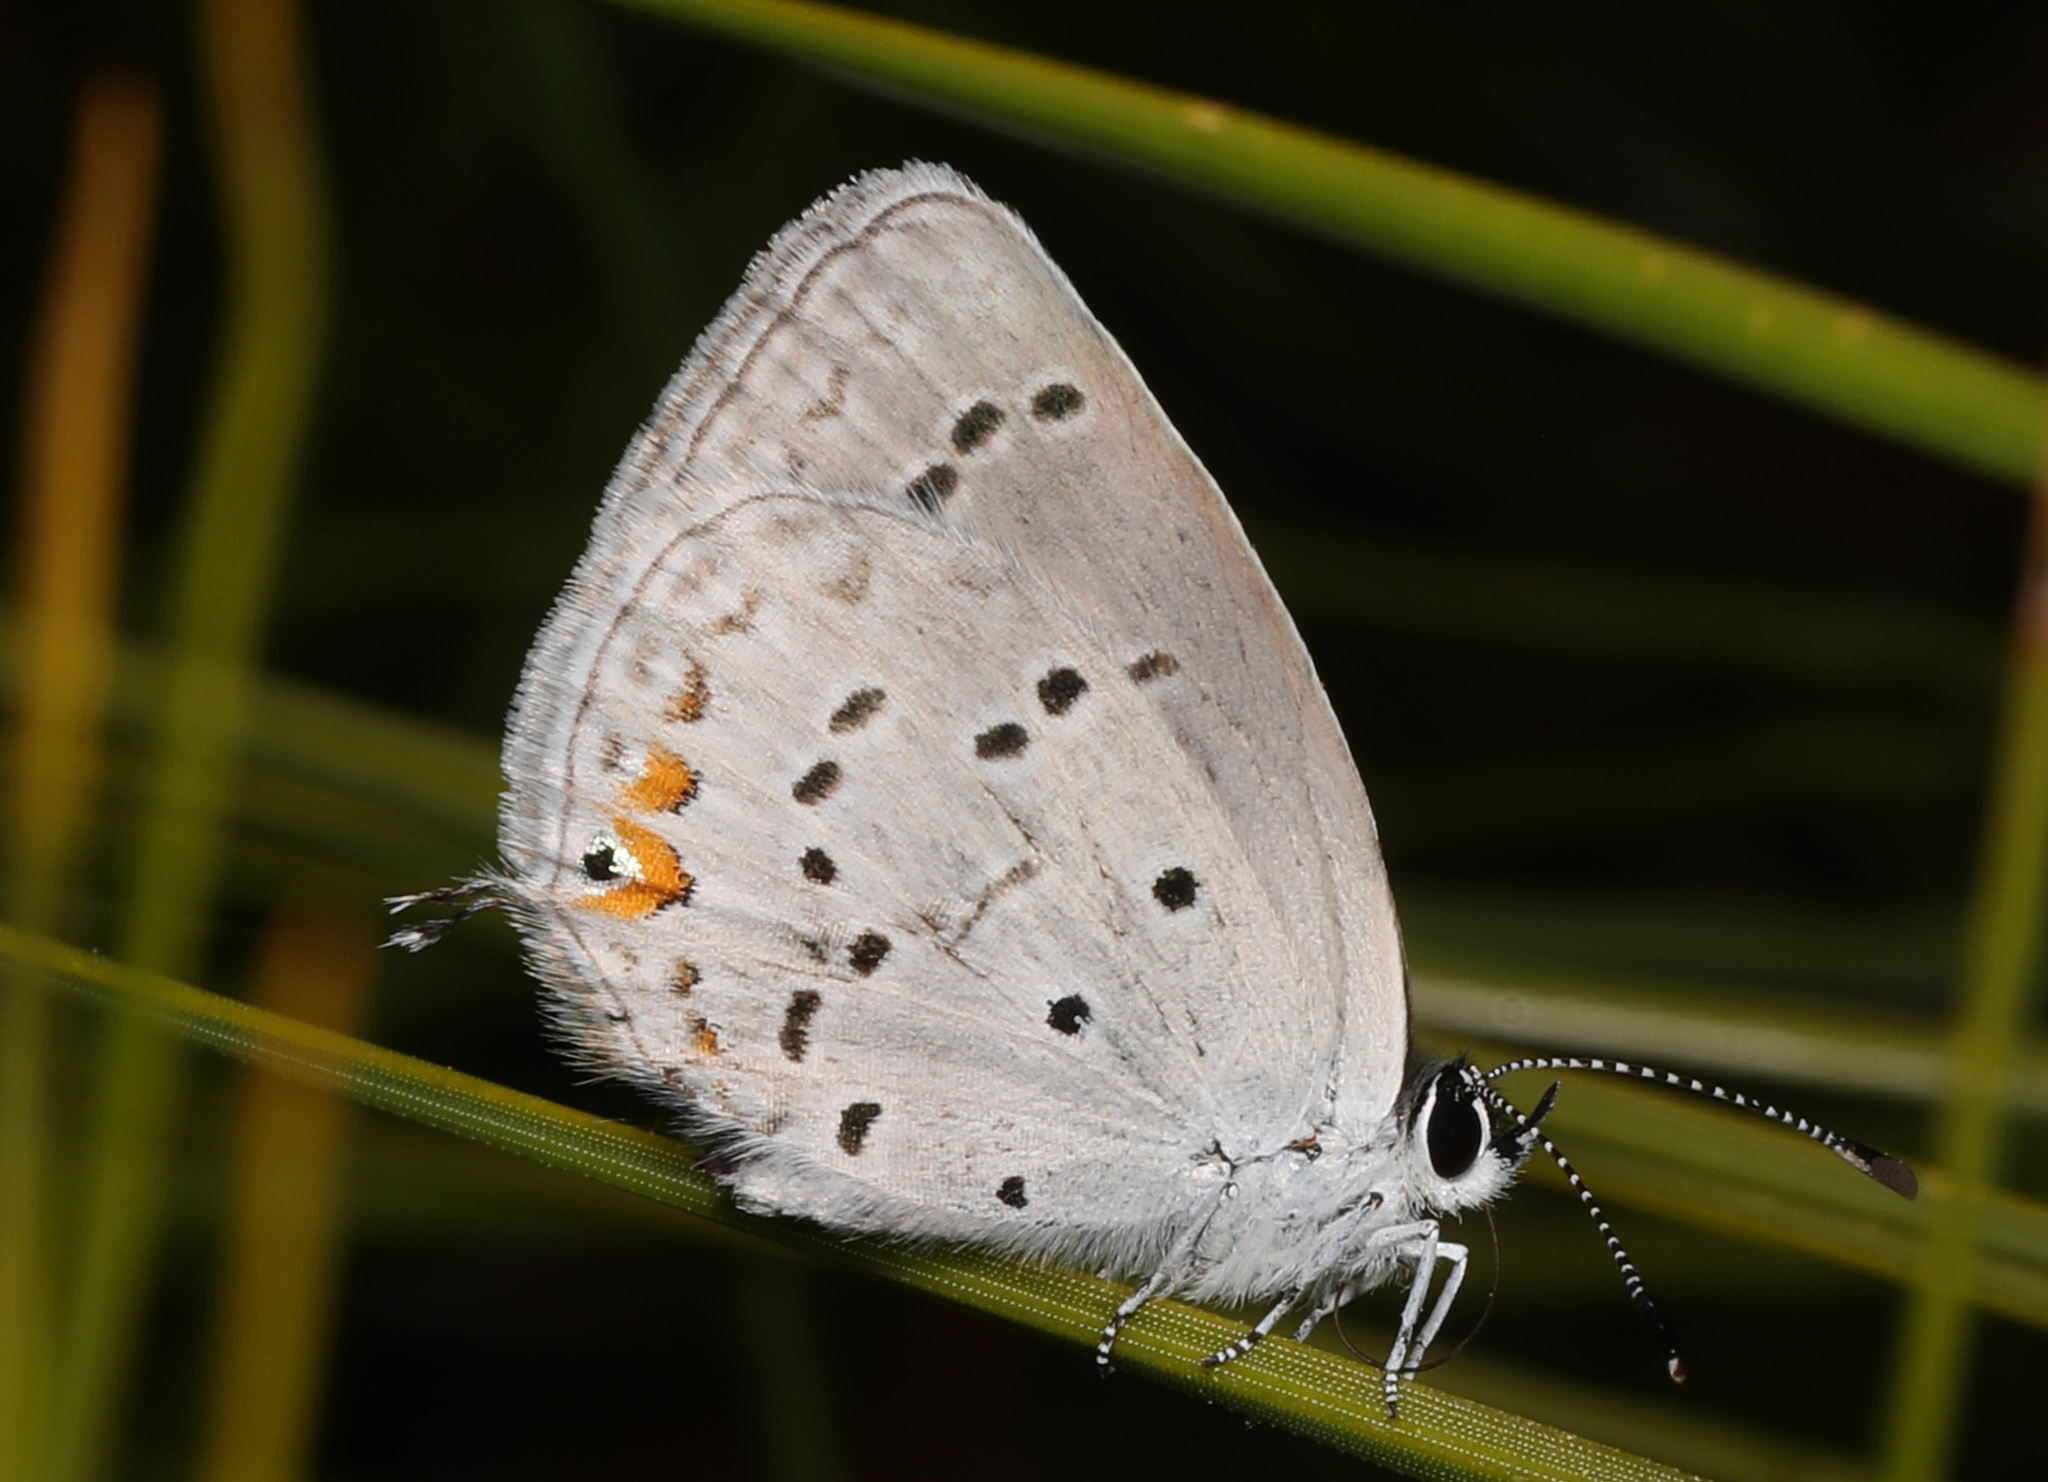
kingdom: Animalia
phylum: Arthropoda
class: Insecta
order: Lepidoptera
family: Lycaenidae
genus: Elkalyce
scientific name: Elkalyce comyntas
